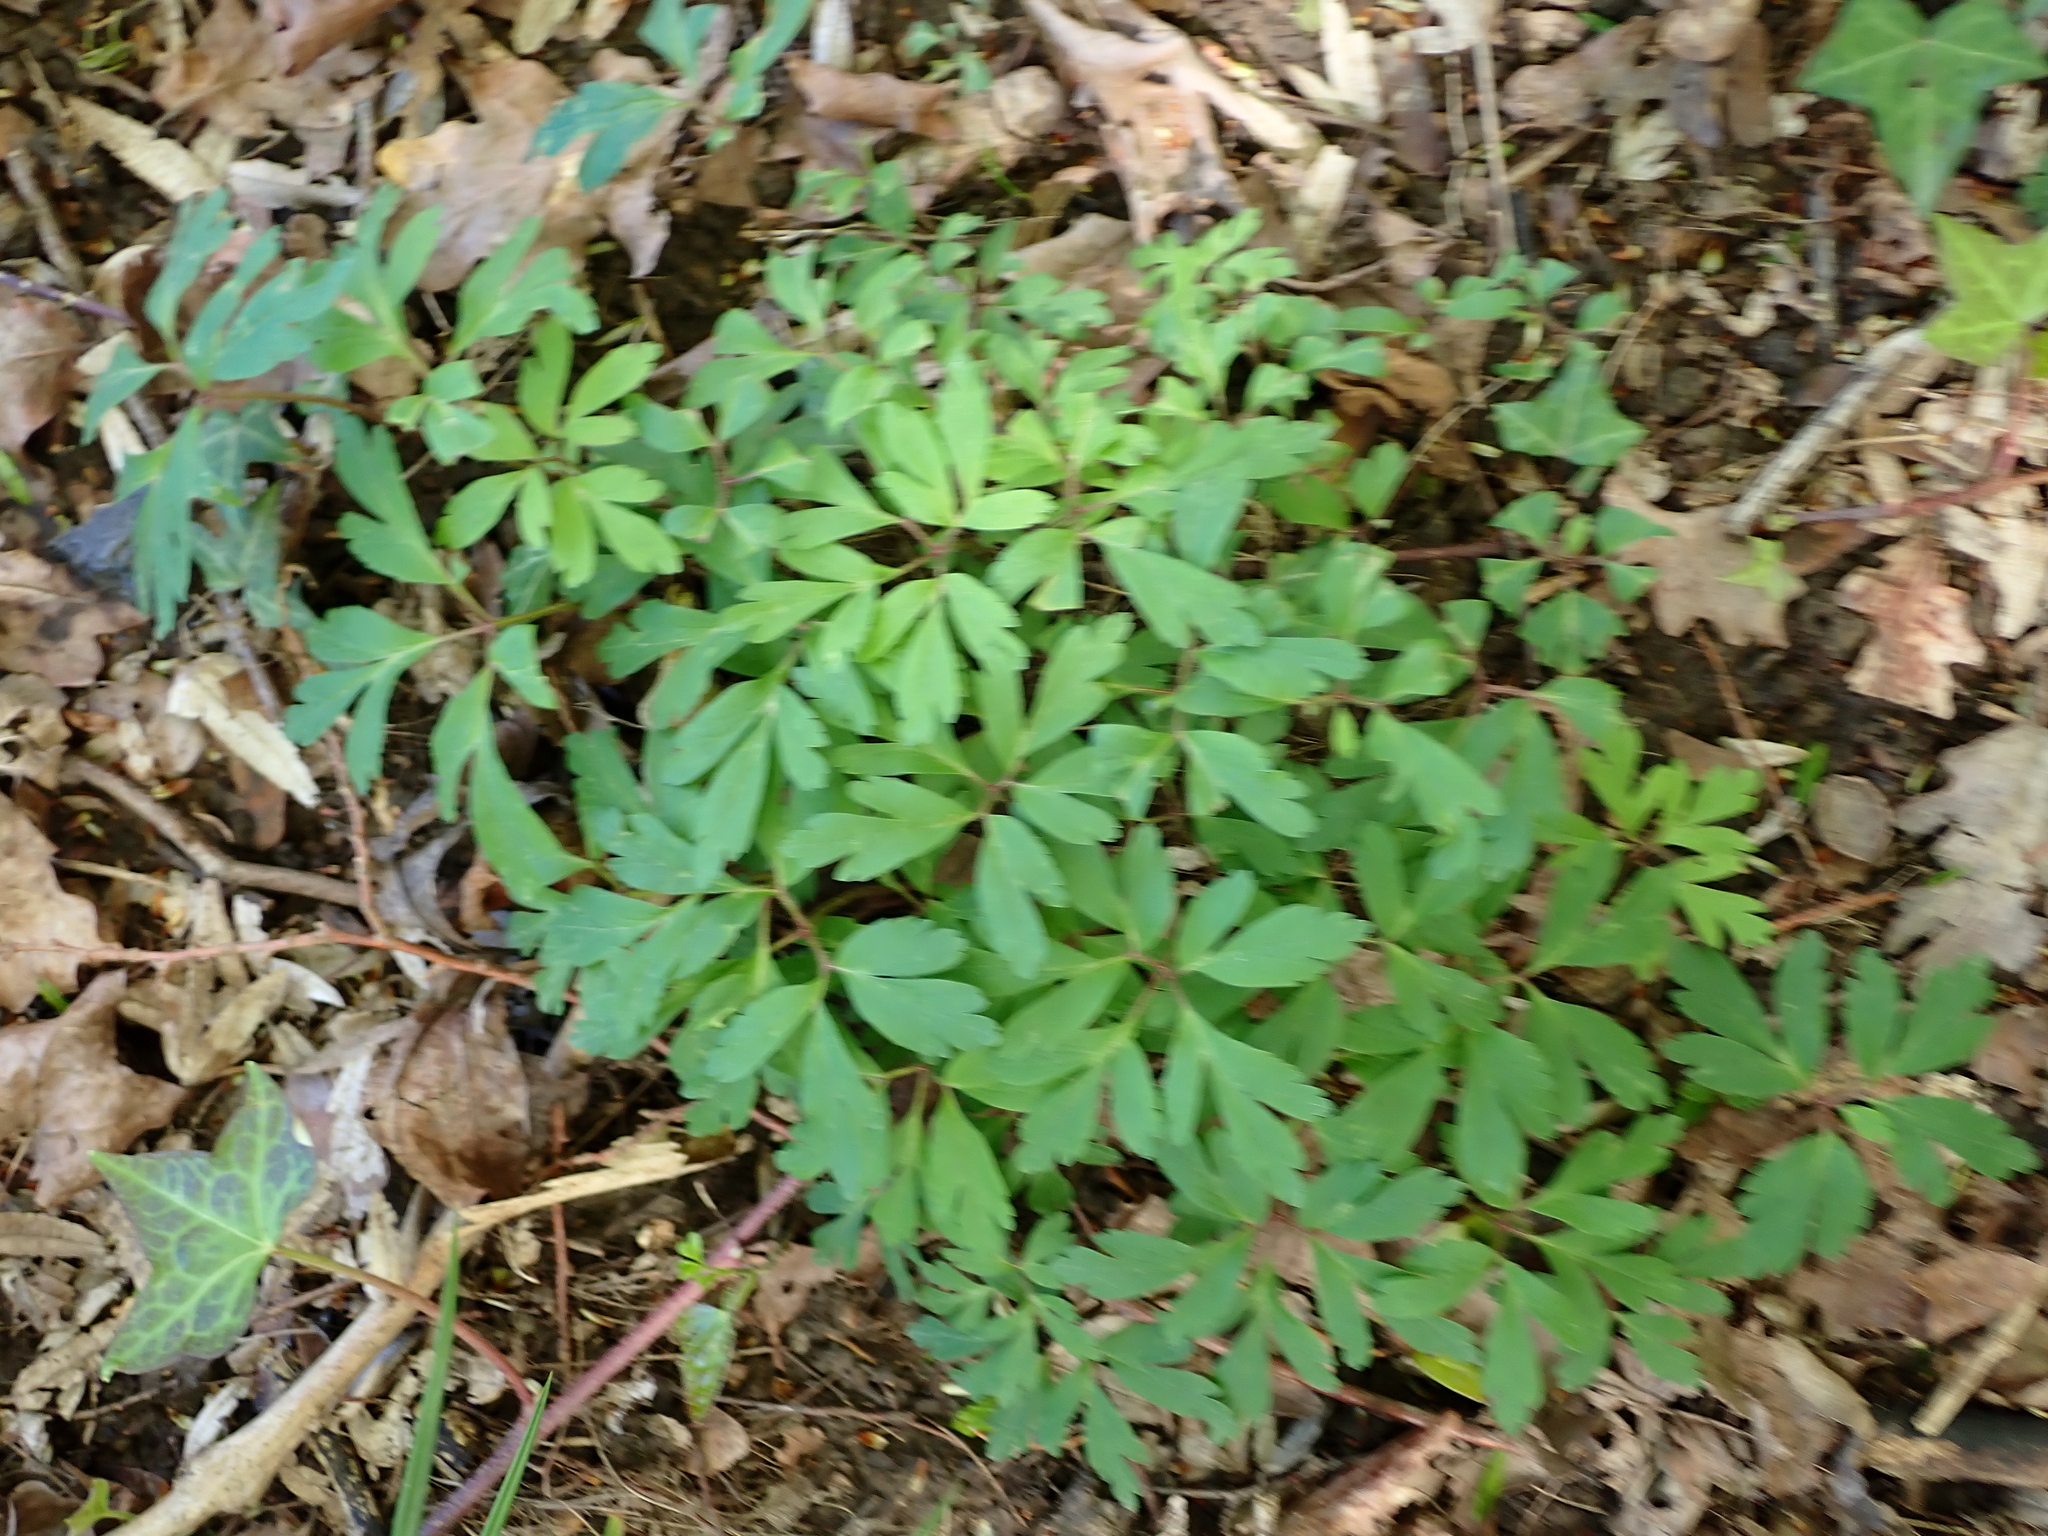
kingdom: Plantae
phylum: Tracheophyta
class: Magnoliopsida
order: Ranunculales
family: Ranunculaceae
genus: Anemone
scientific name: Anemone nemorosa
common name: Wood anemone
